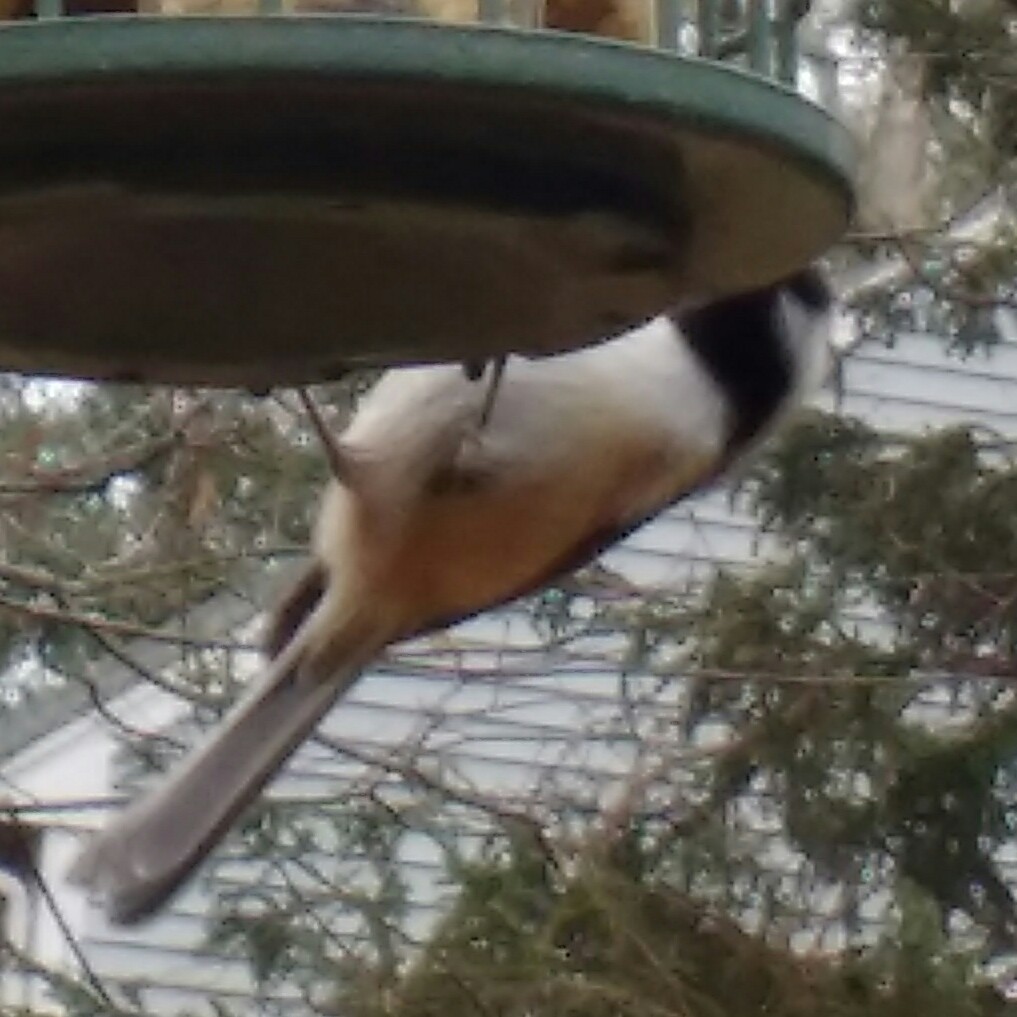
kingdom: Animalia
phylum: Chordata
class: Aves
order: Passeriformes
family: Paridae
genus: Poecile
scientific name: Poecile atricapillus
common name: Black-capped chickadee
